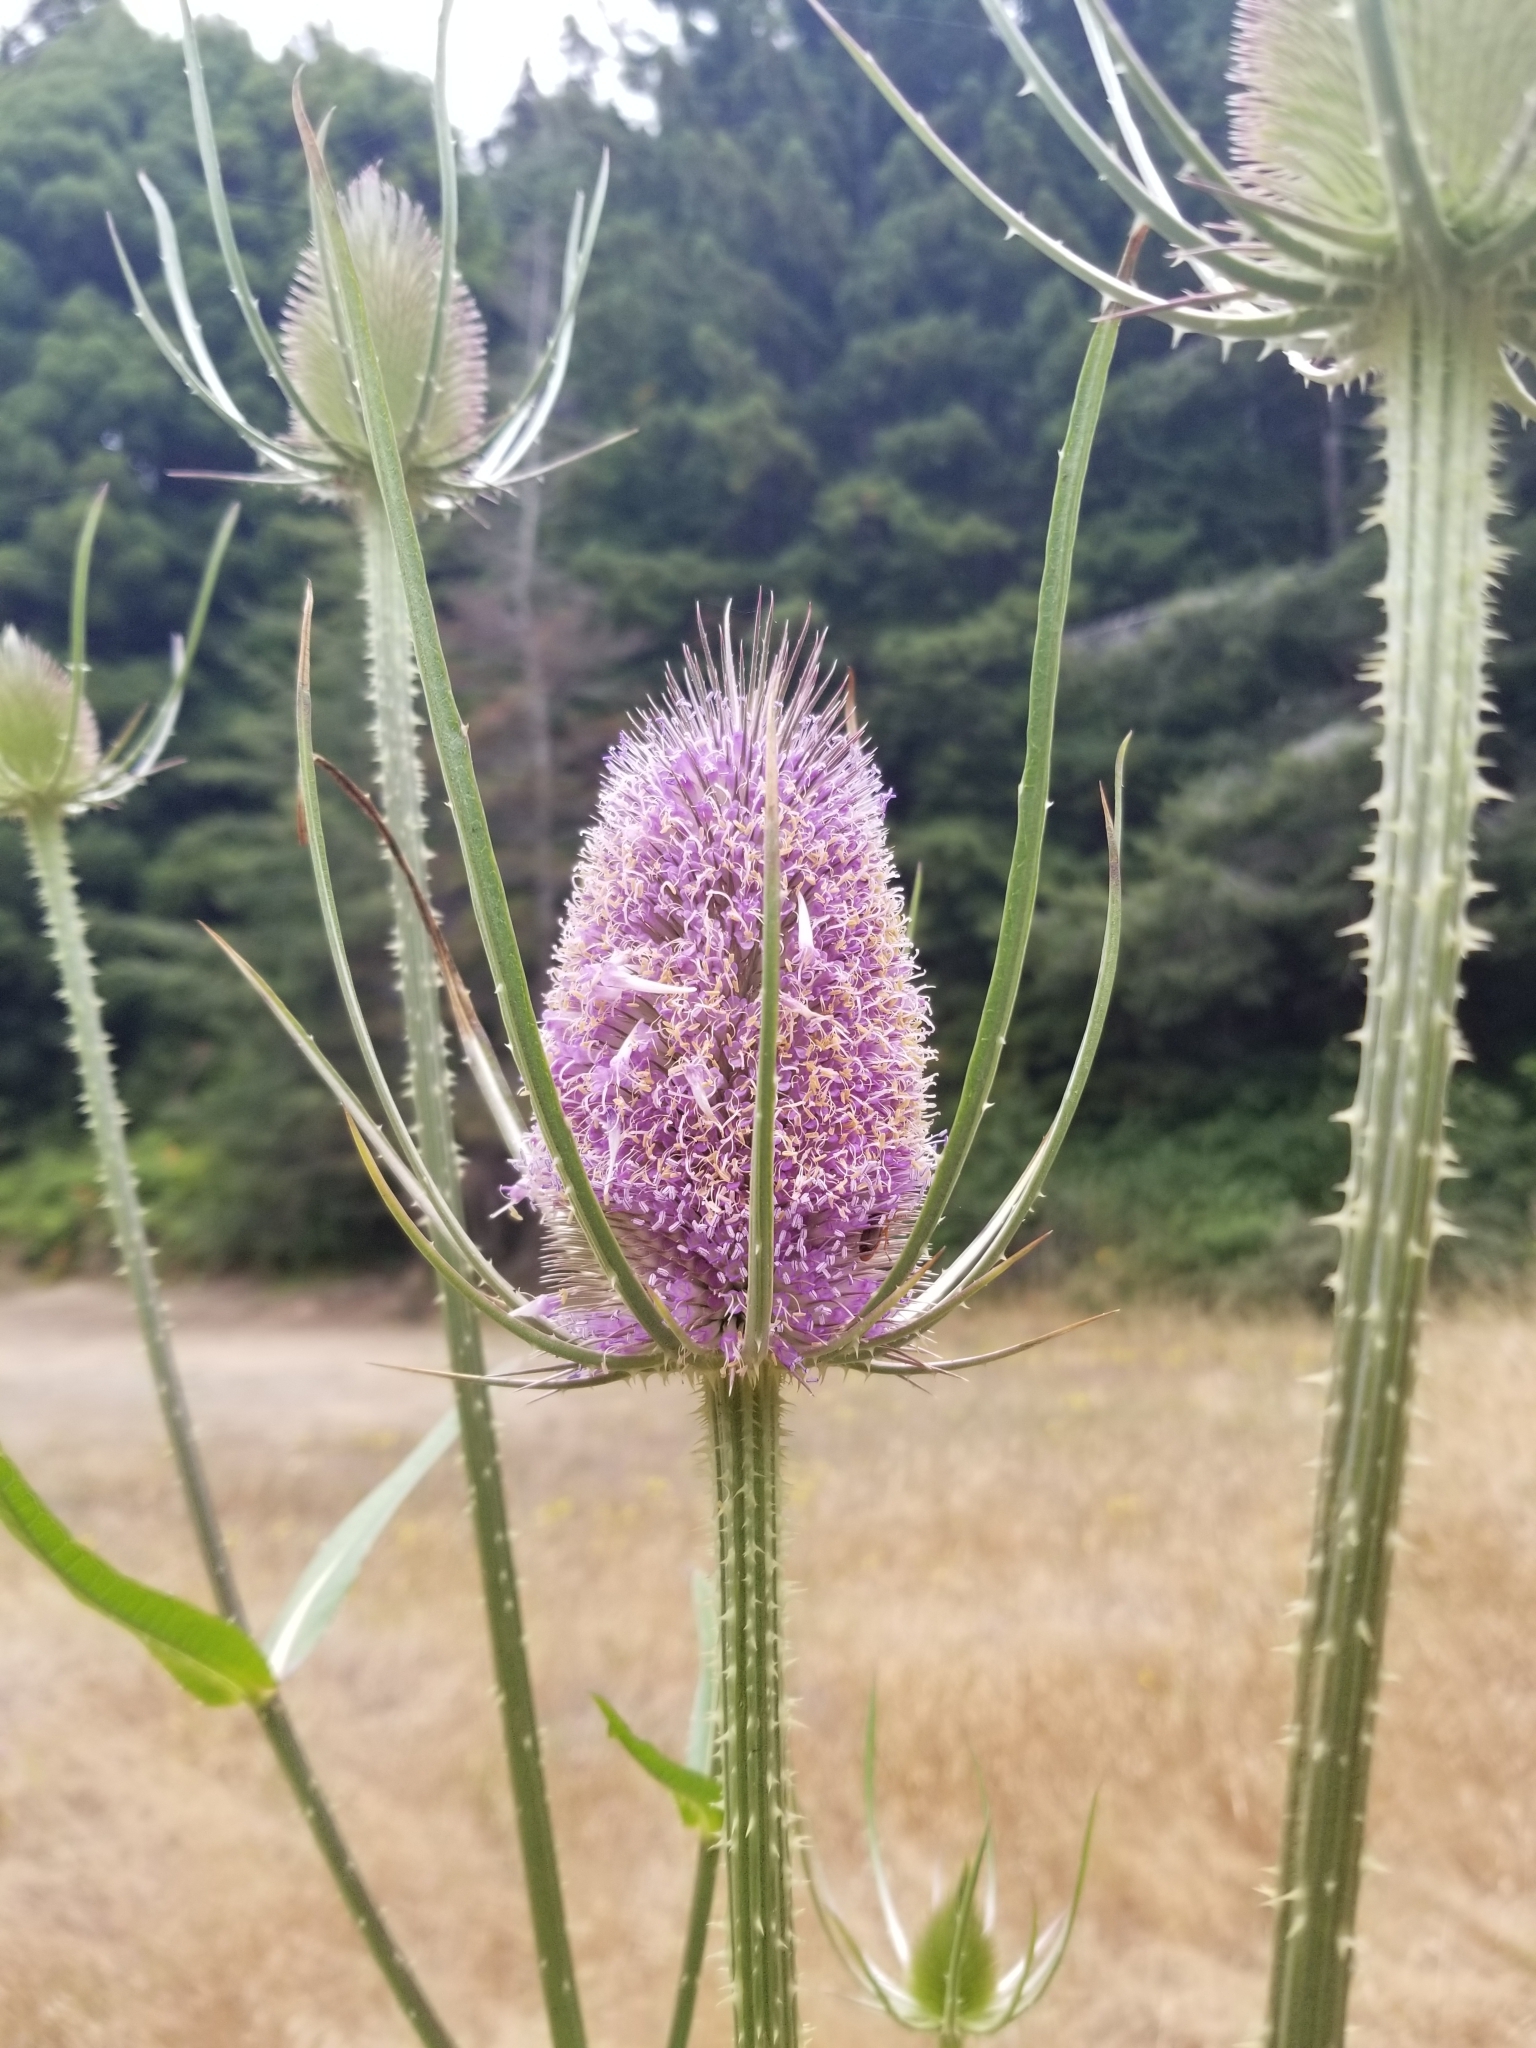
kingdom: Plantae
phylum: Tracheophyta
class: Magnoliopsida
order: Dipsacales
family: Caprifoliaceae
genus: Dipsacus
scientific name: Dipsacus fullonum
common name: Teasel
